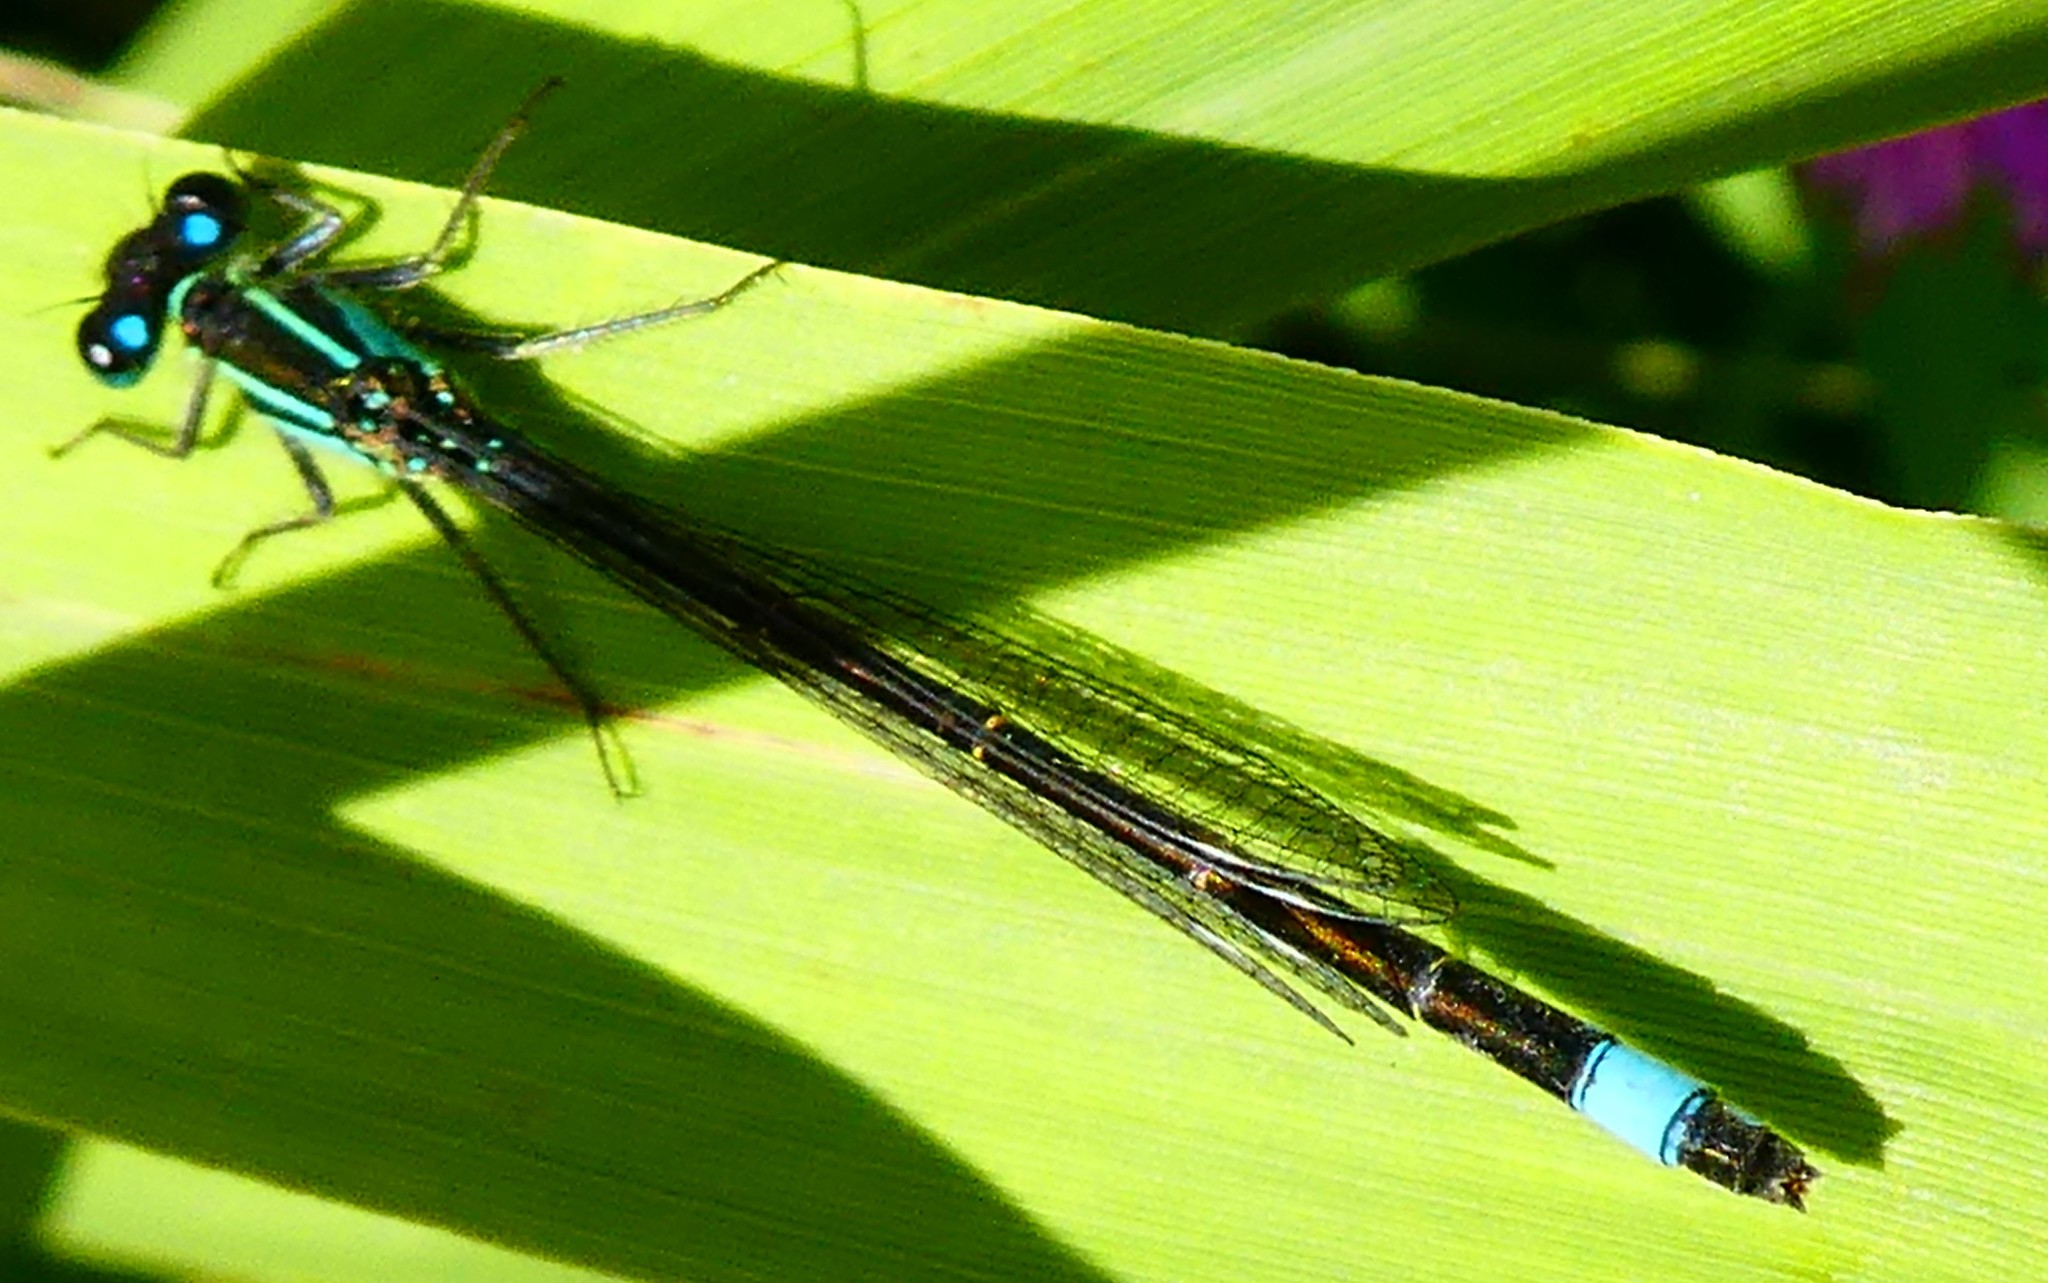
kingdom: Animalia
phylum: Arthropoda
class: Insecta
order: Odonata
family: Coenagrionidae
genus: Ischnura
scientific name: Ischnura elegans
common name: Blue-tailed damselfly
